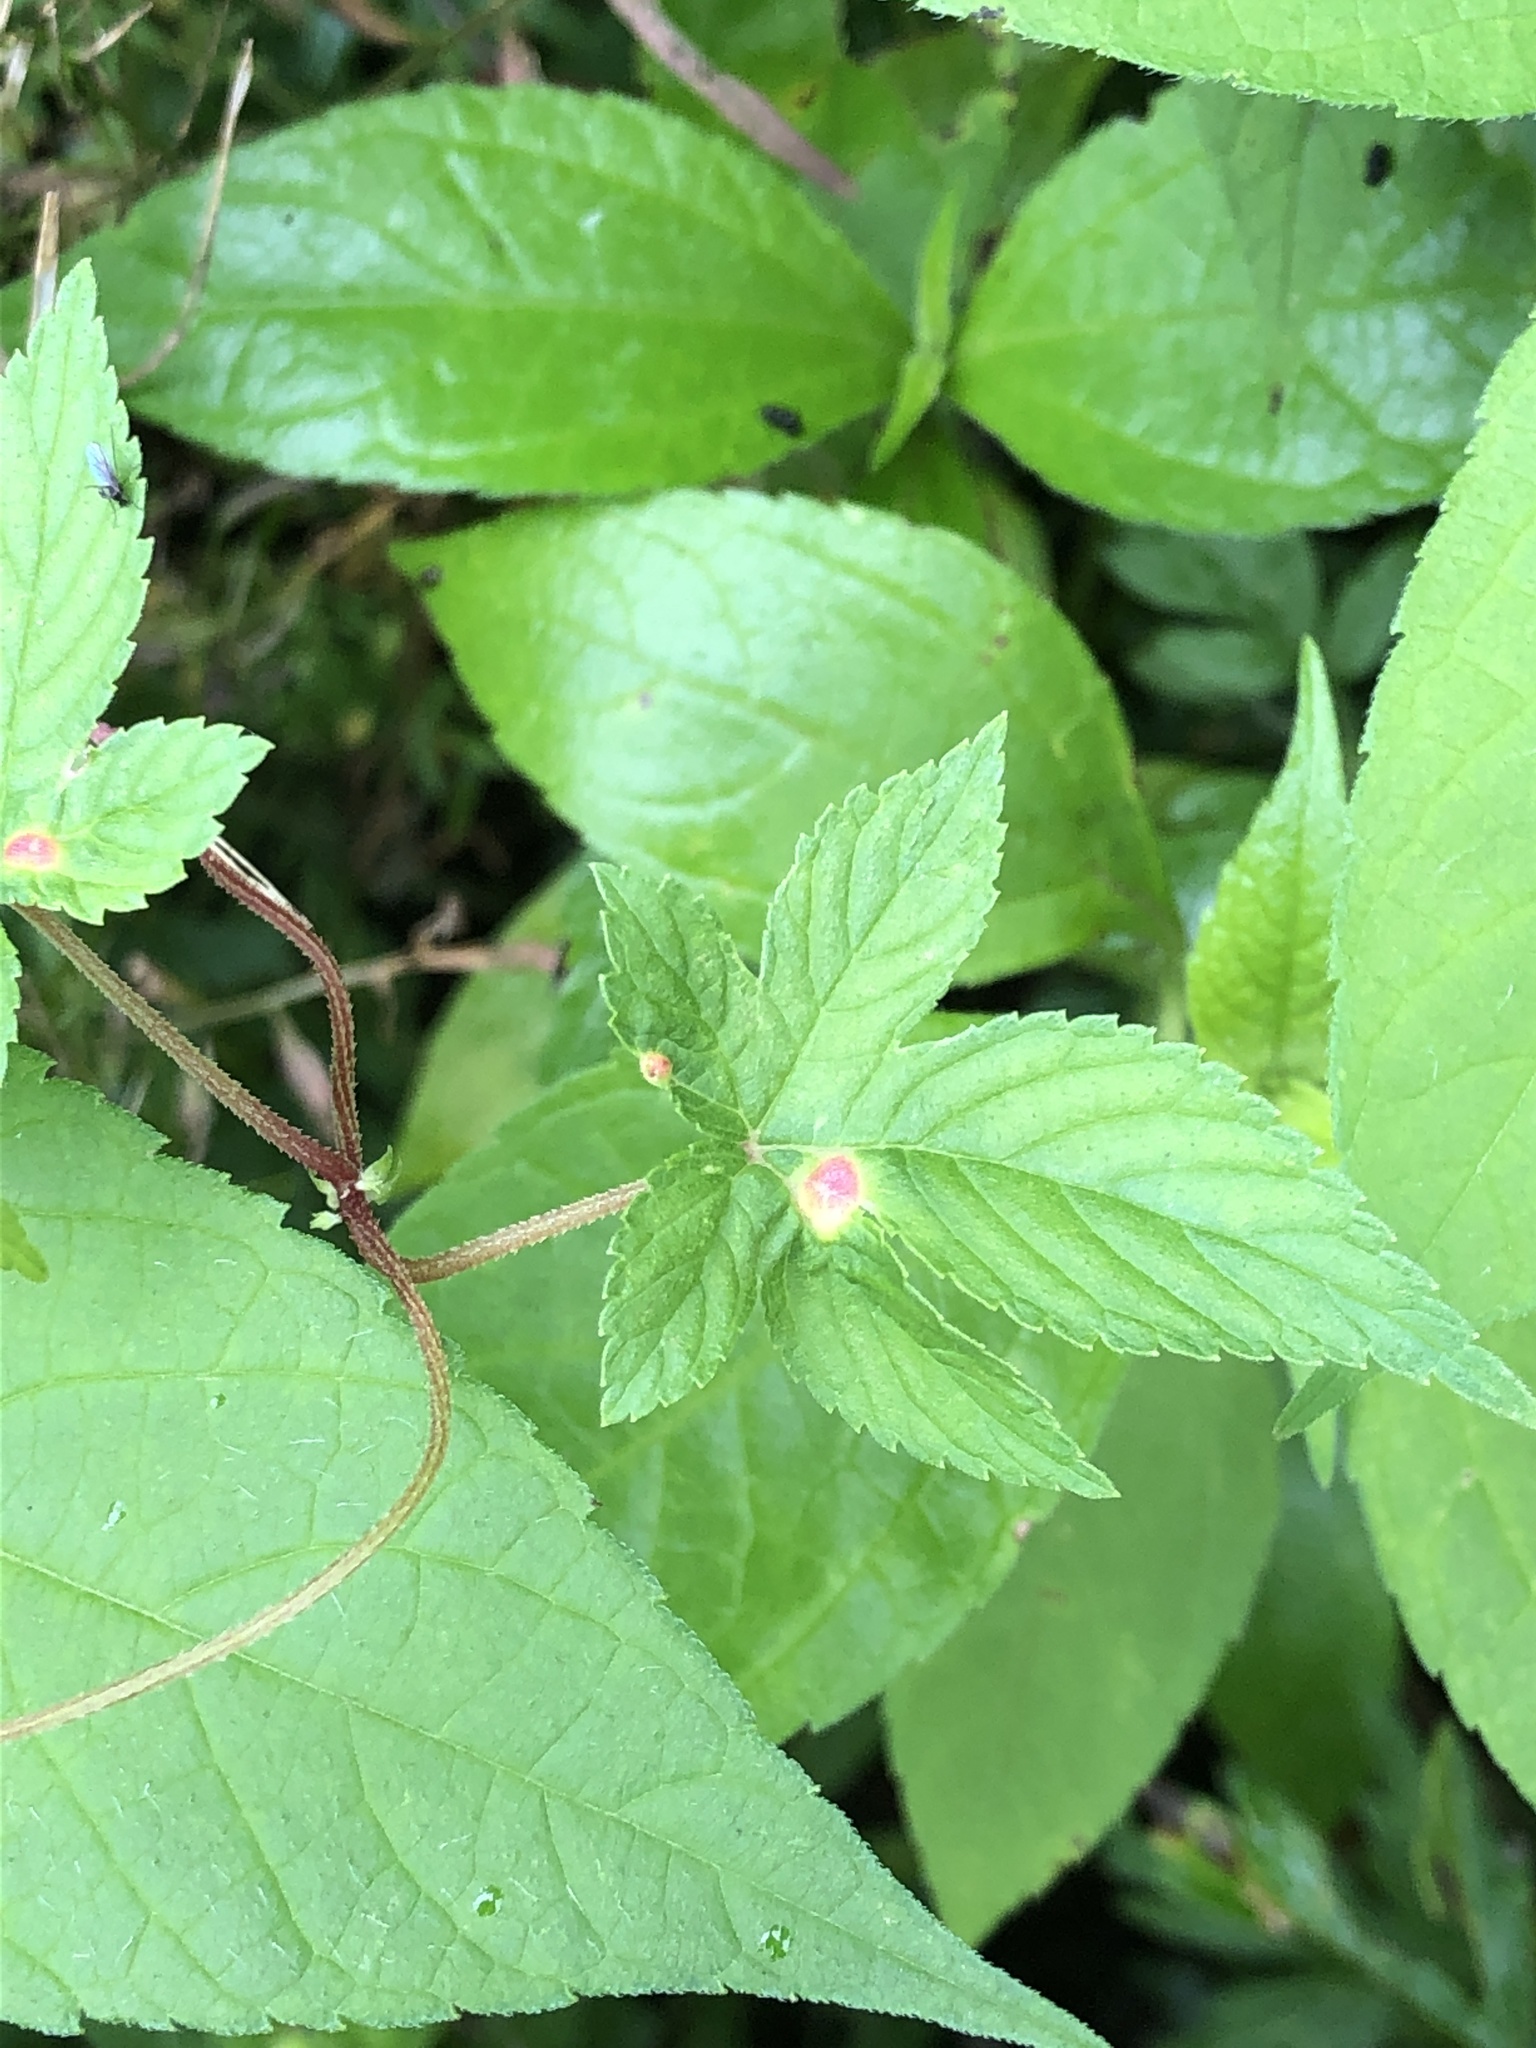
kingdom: Plantae
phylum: Tracheophyta
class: Magnoliopsida
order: Rosales
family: Cannabaceae
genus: Humulus
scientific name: Humulus scandens
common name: Japanese hop
